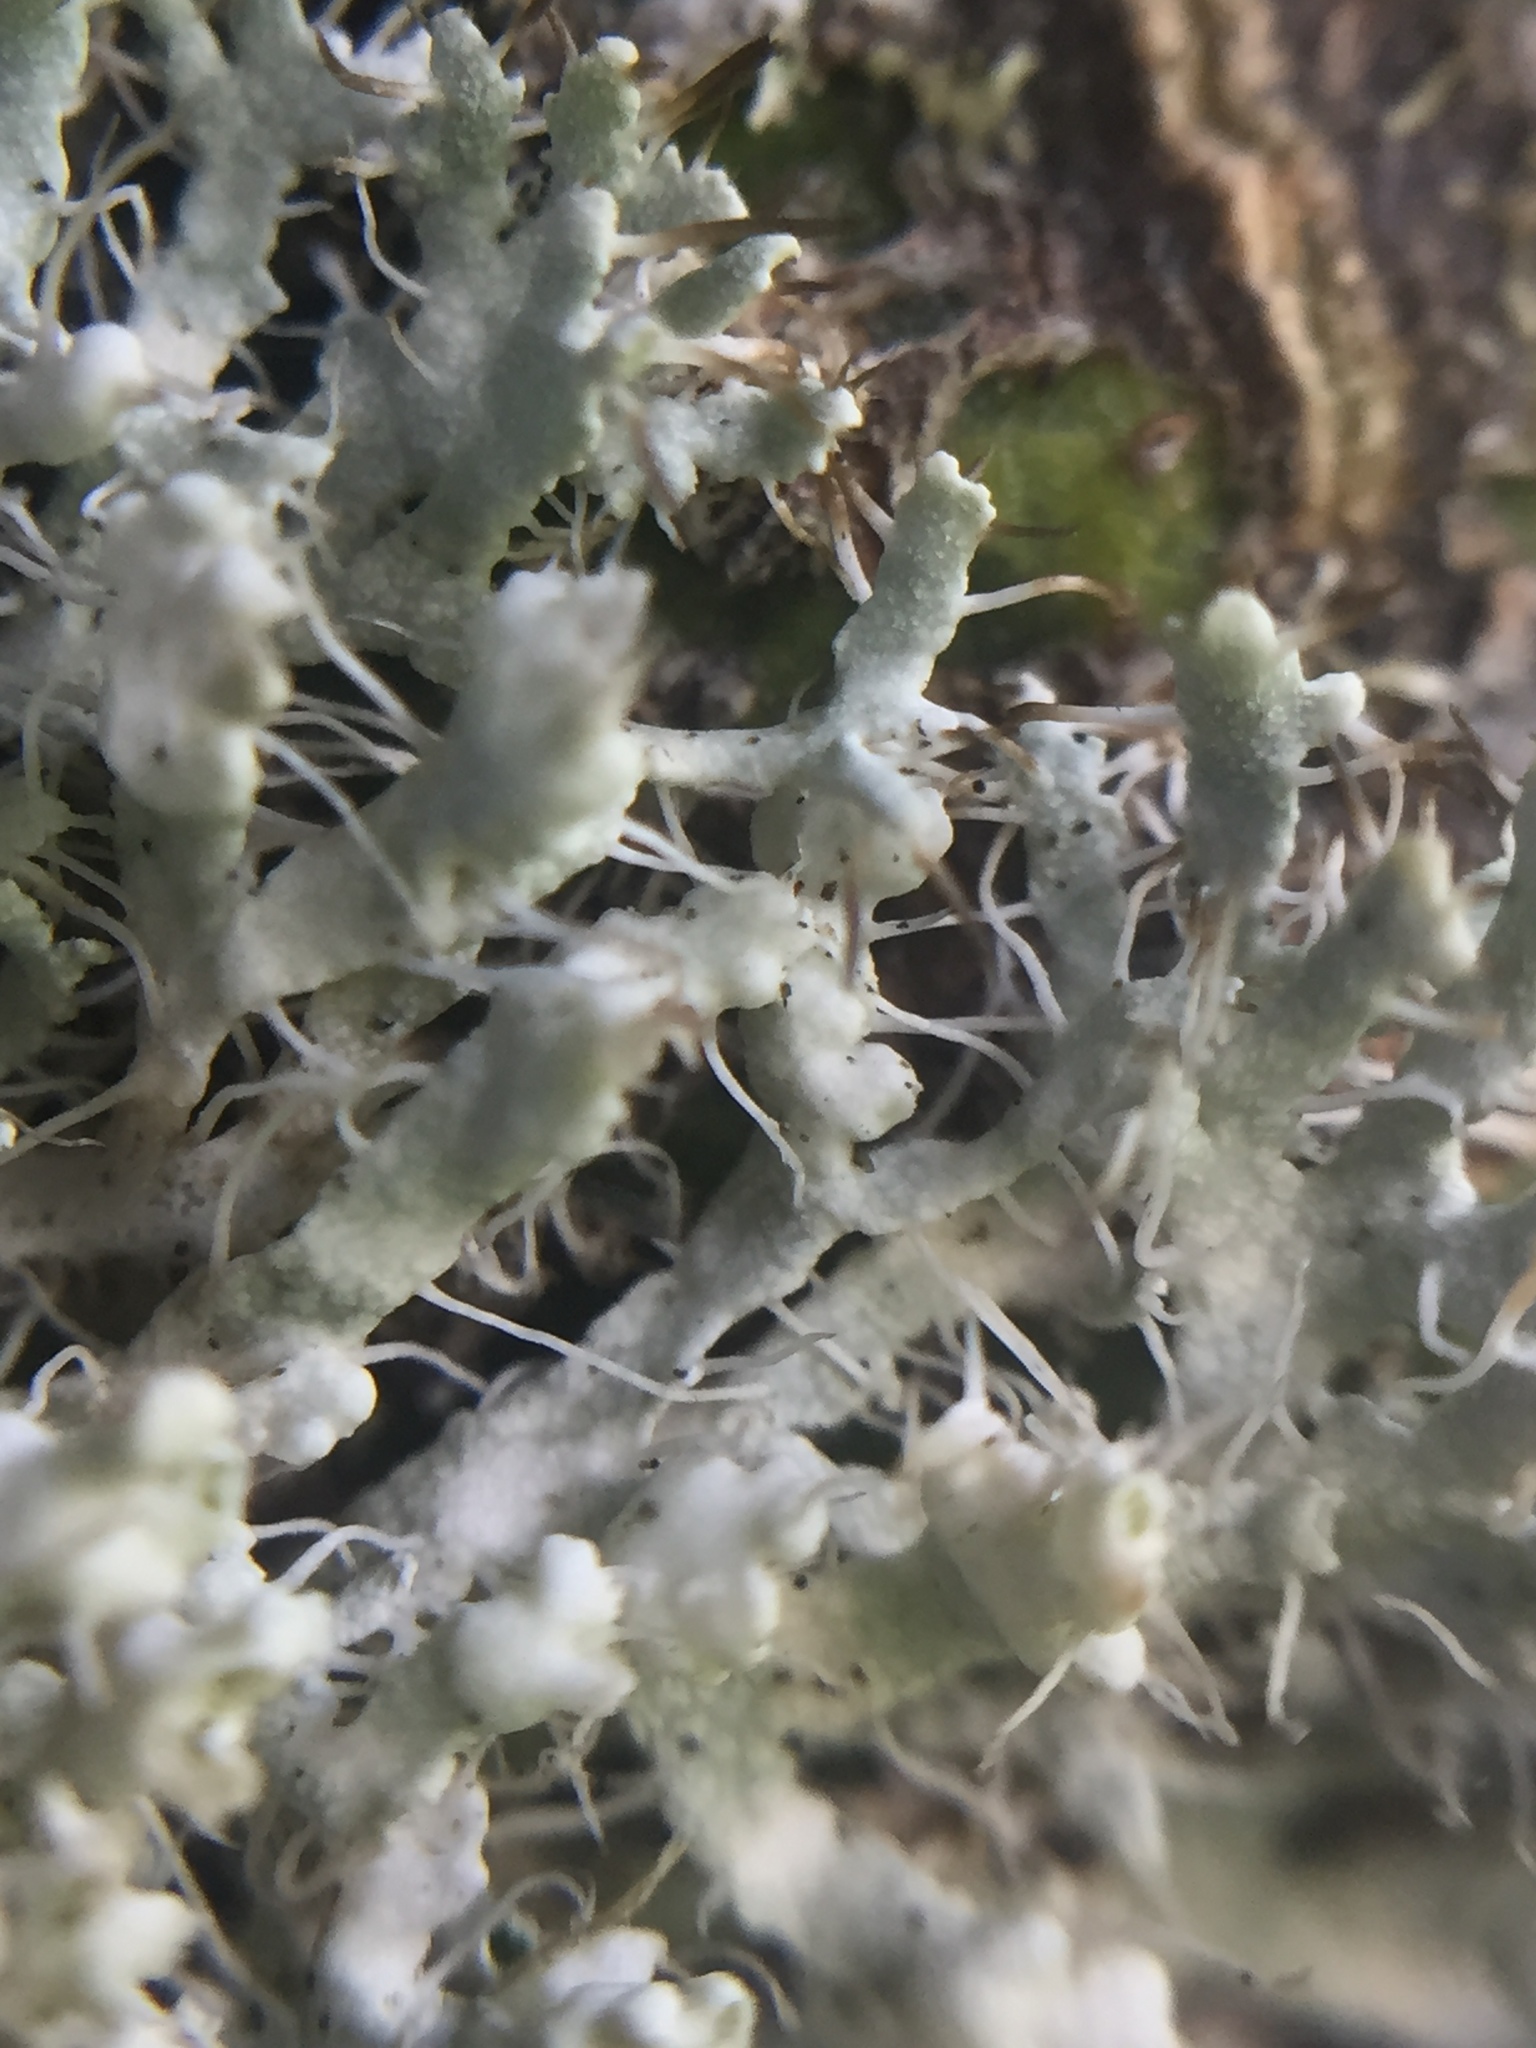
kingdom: Fungi
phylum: Ascomycota
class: Lecanoromycetes
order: Caliciales
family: Physciaceae
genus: Physcia
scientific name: Physcia adscendens
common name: Hooded rosette lichen
